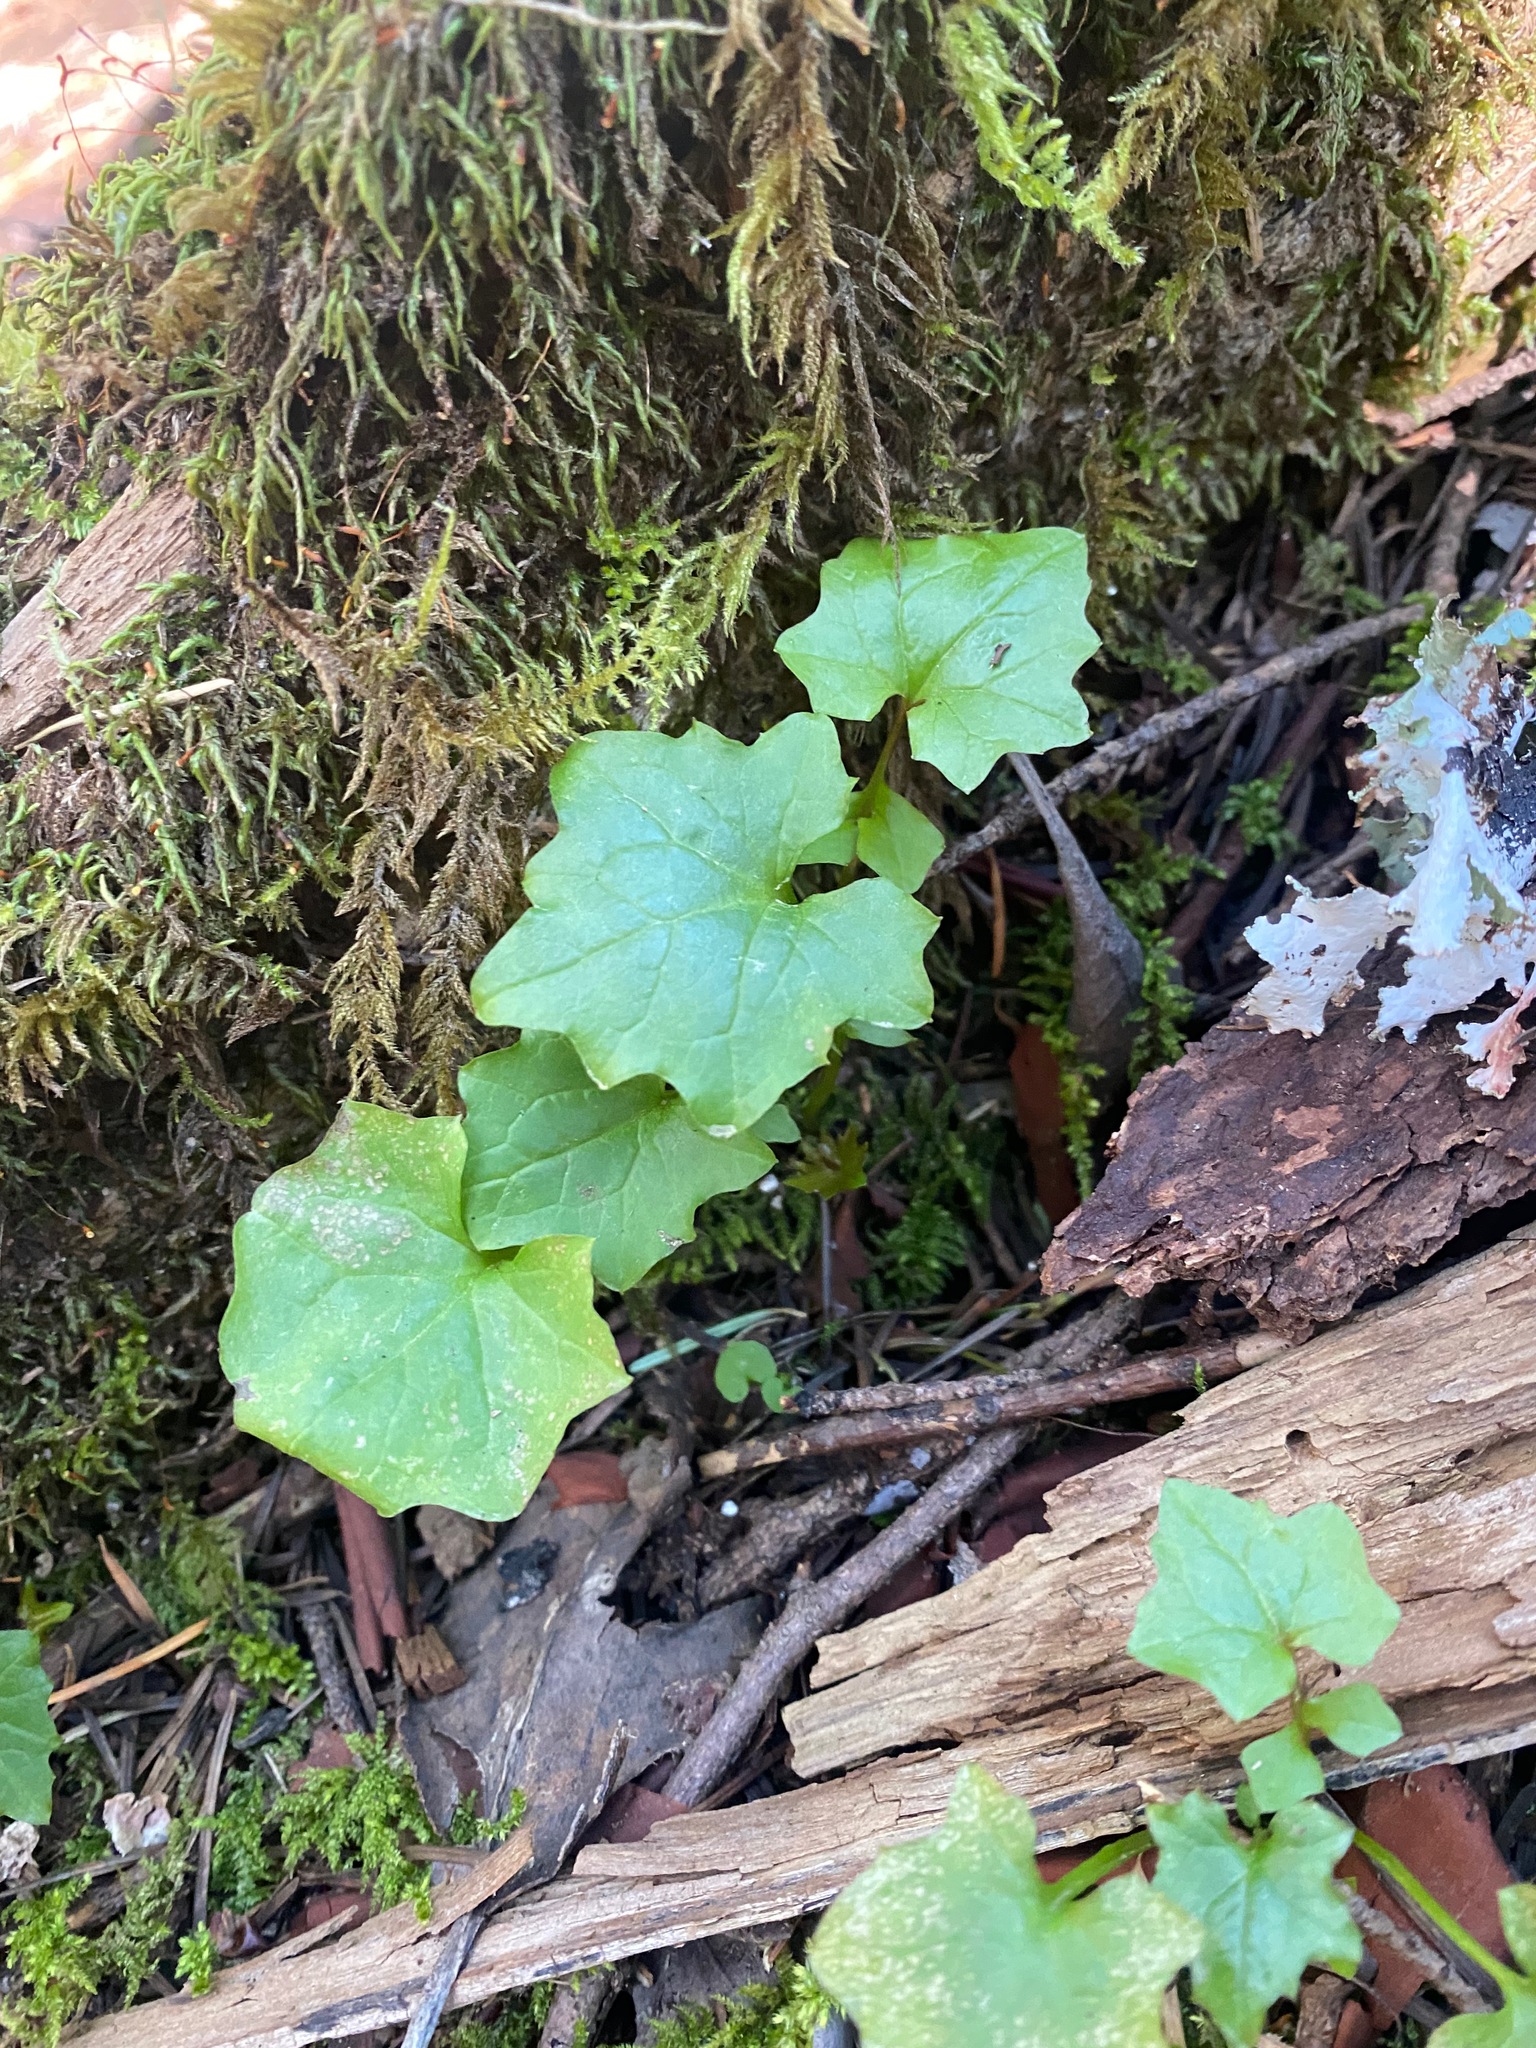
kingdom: Plantae
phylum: Tracheophyta
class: Magnoliopsida
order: Asterales
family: Asteraceae
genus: Mycelis
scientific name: Mycelis muralis
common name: Wall lettuce
